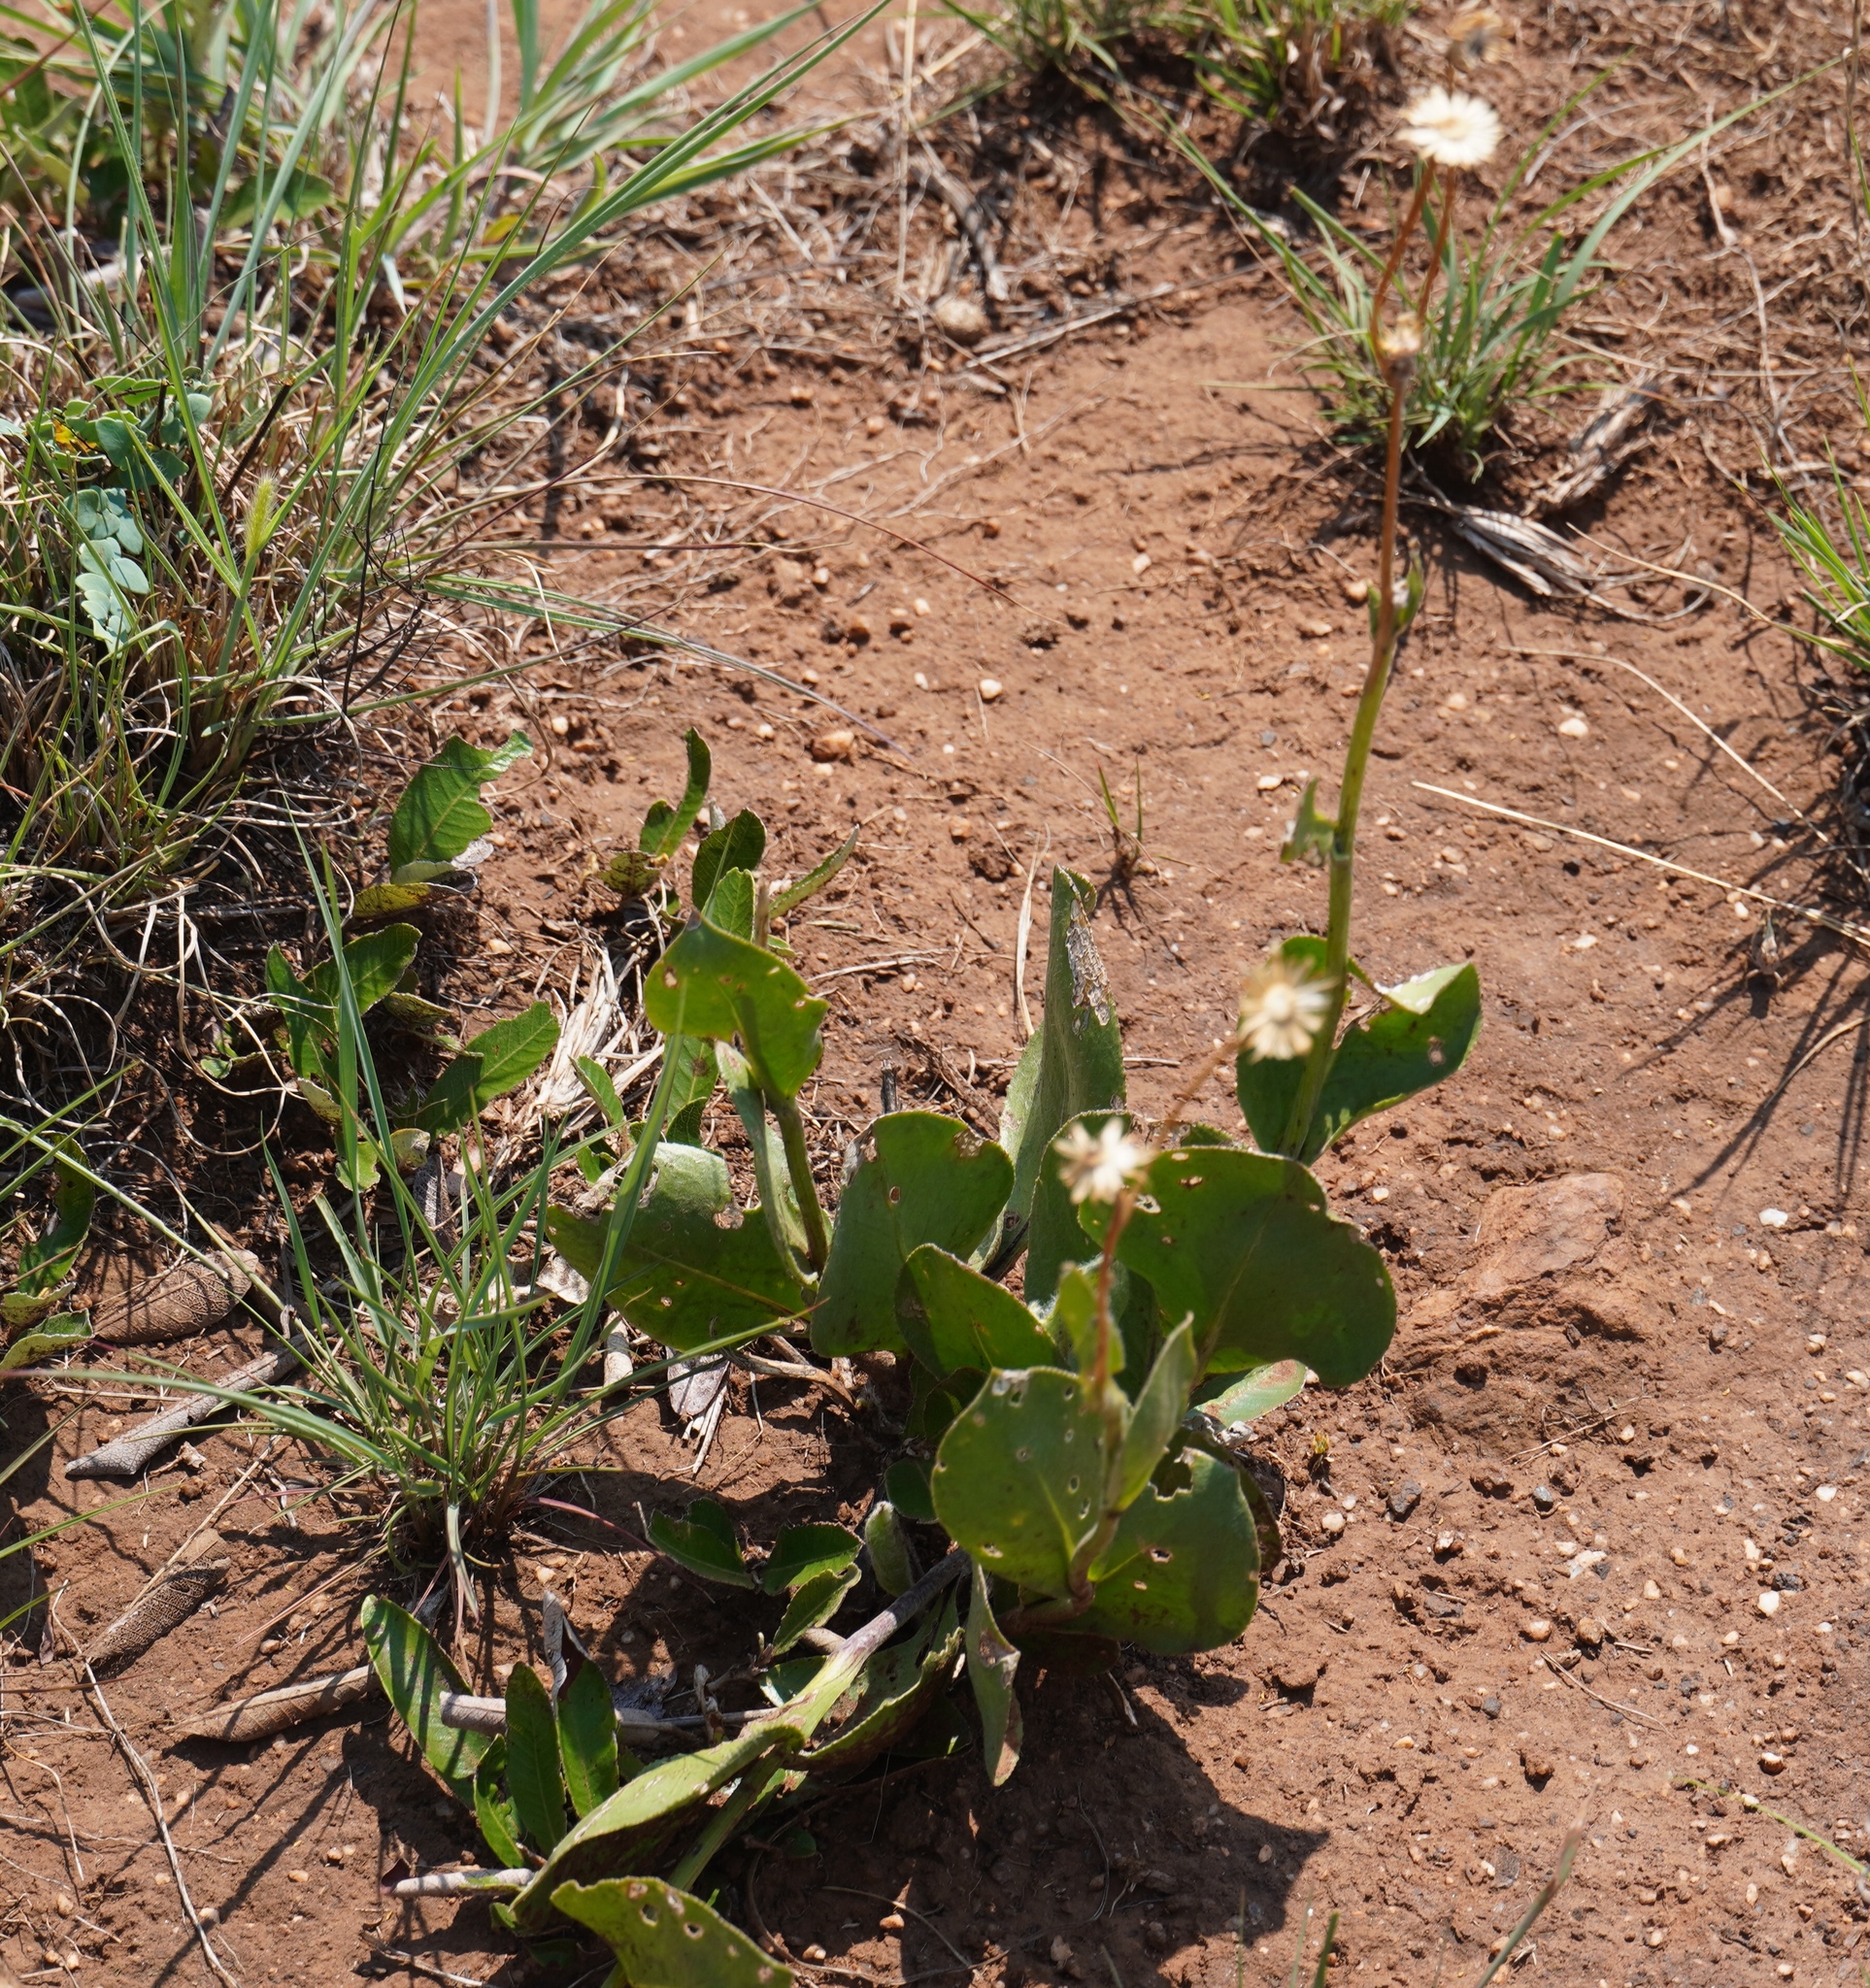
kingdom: Plantae
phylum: Tracheophyta
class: Magnoliopsida
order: Asterales
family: Asteraceae
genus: Senecio
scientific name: Senecio coronatus
